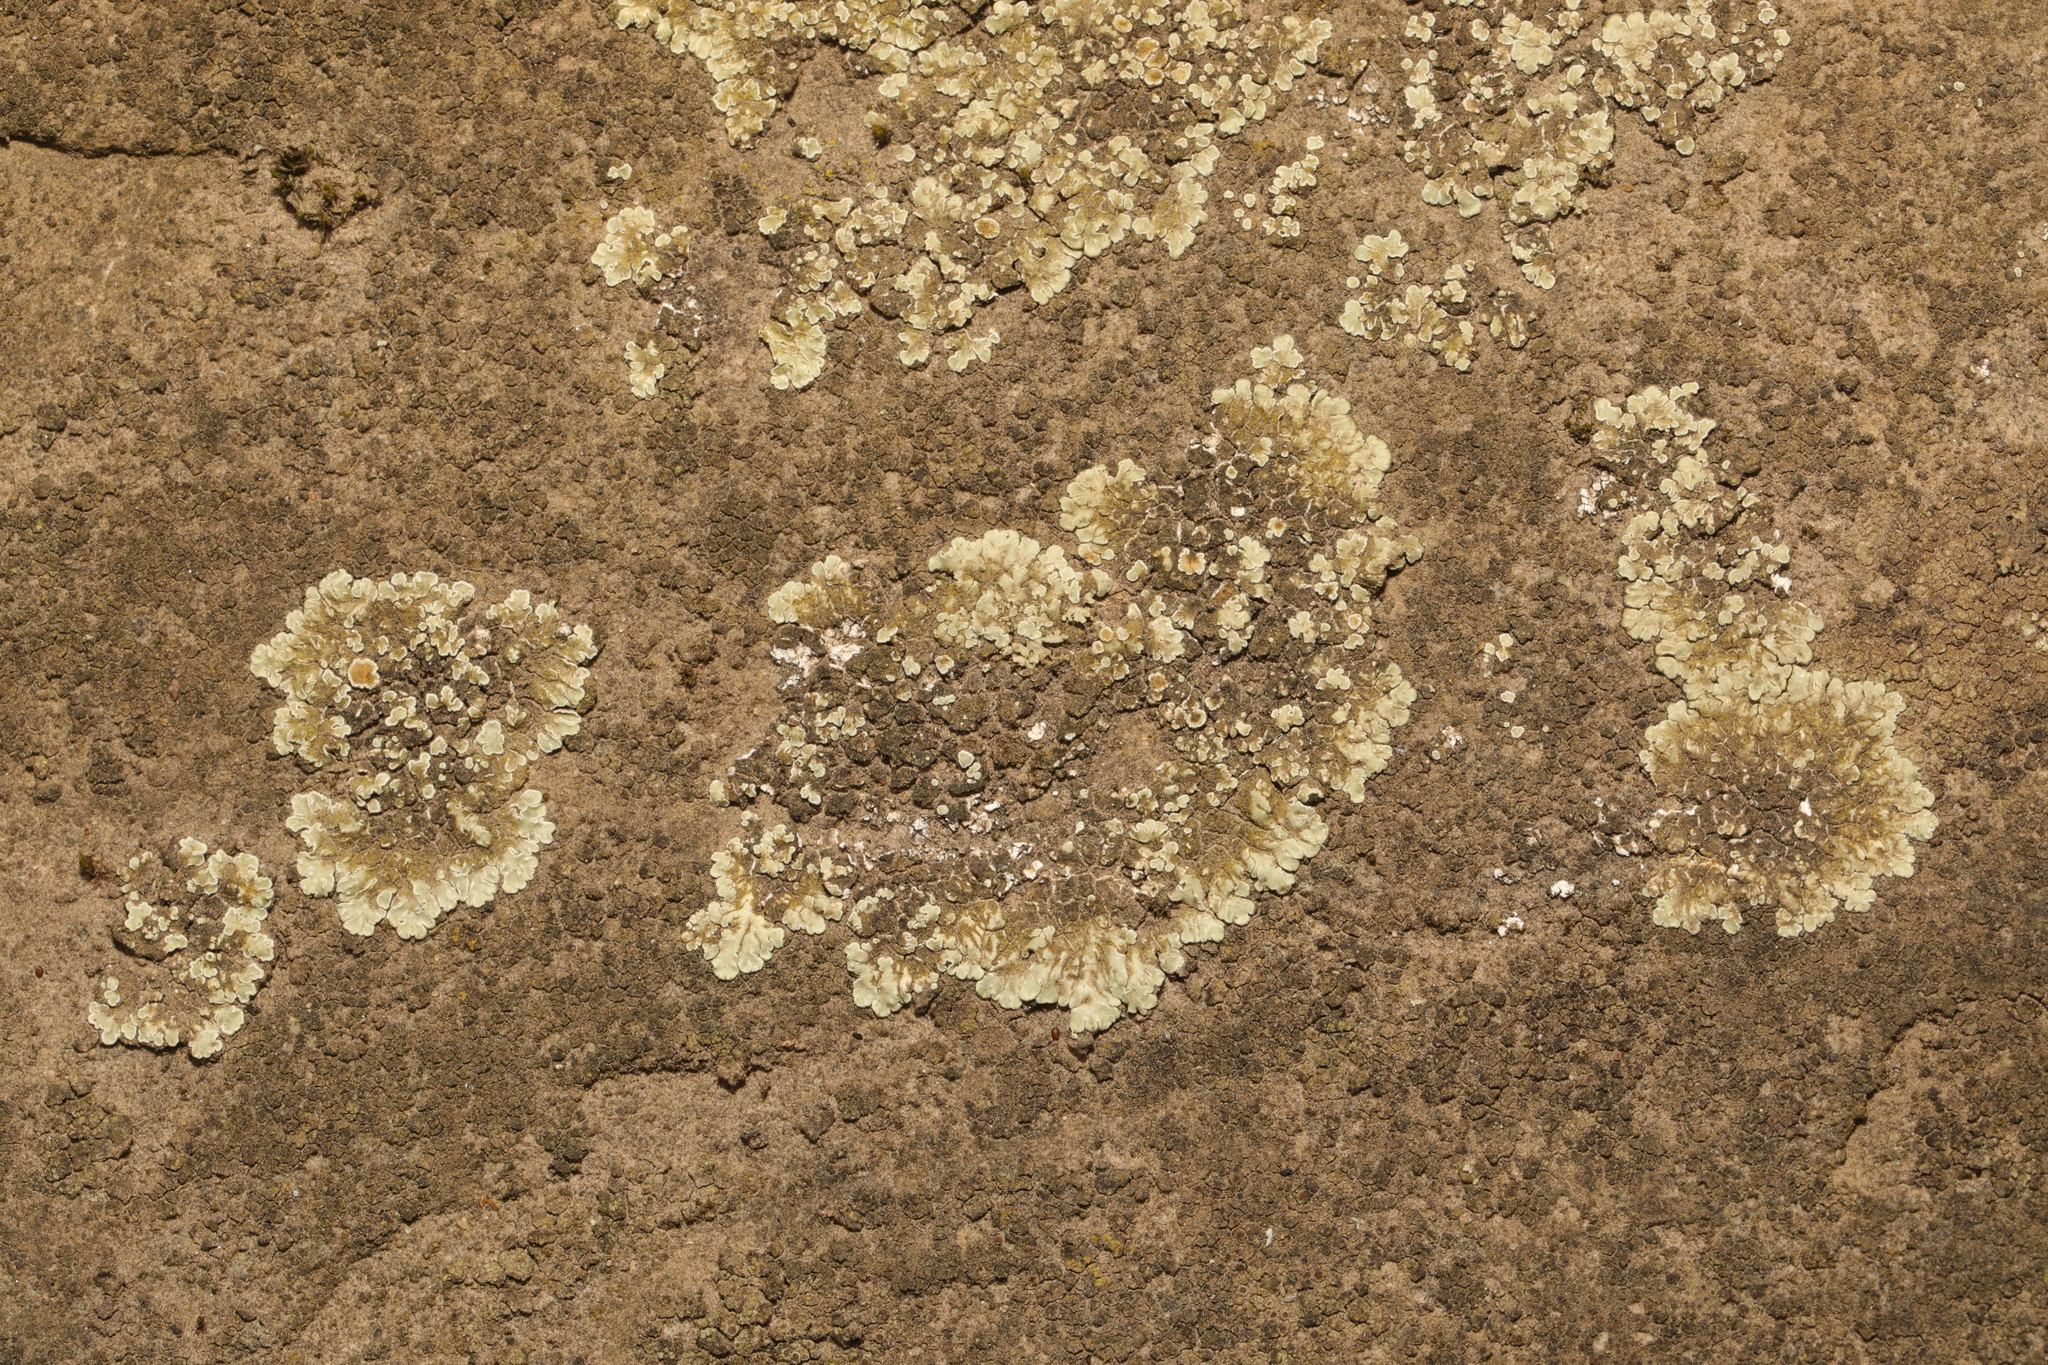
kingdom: Fungi
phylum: Ascomycota
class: Lecanoromycetes
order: Lecanorales
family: Lecanoraceae
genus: Protoparmeliopsis
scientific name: Protoparmeliopsis muralis
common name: Stonewall rim lichen
